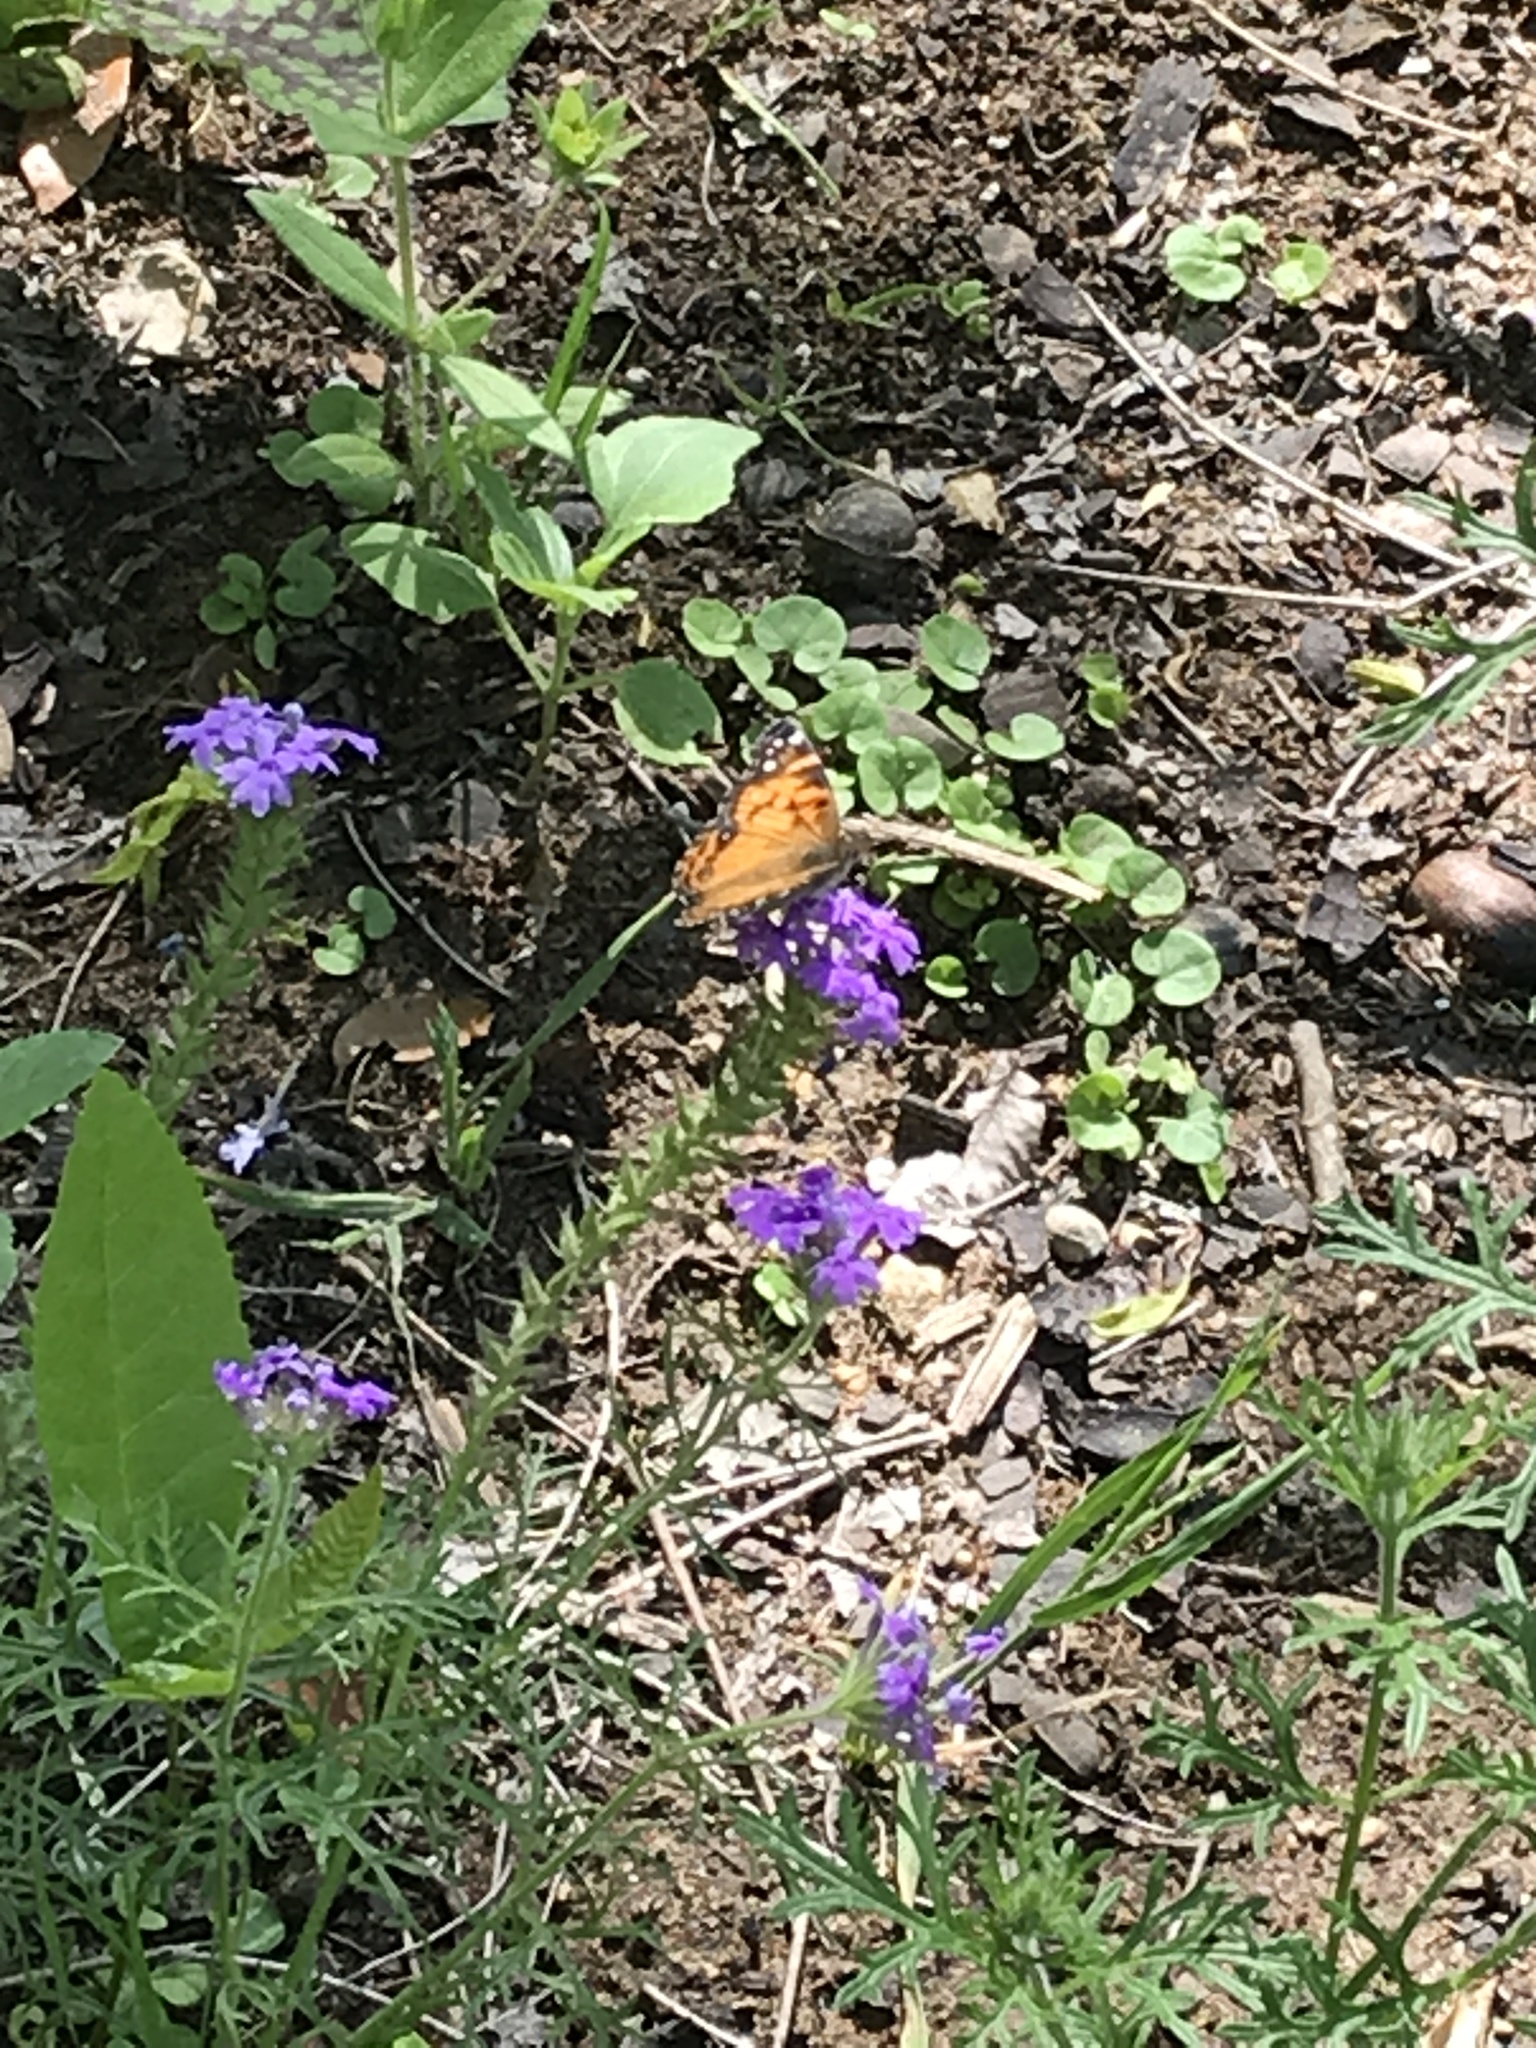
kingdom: Animalia
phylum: Arthropoda
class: Insecta
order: Lepidoptera
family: Nymphalidae
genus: Vanessa
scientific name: Vanessa virginiensis
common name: American lady
